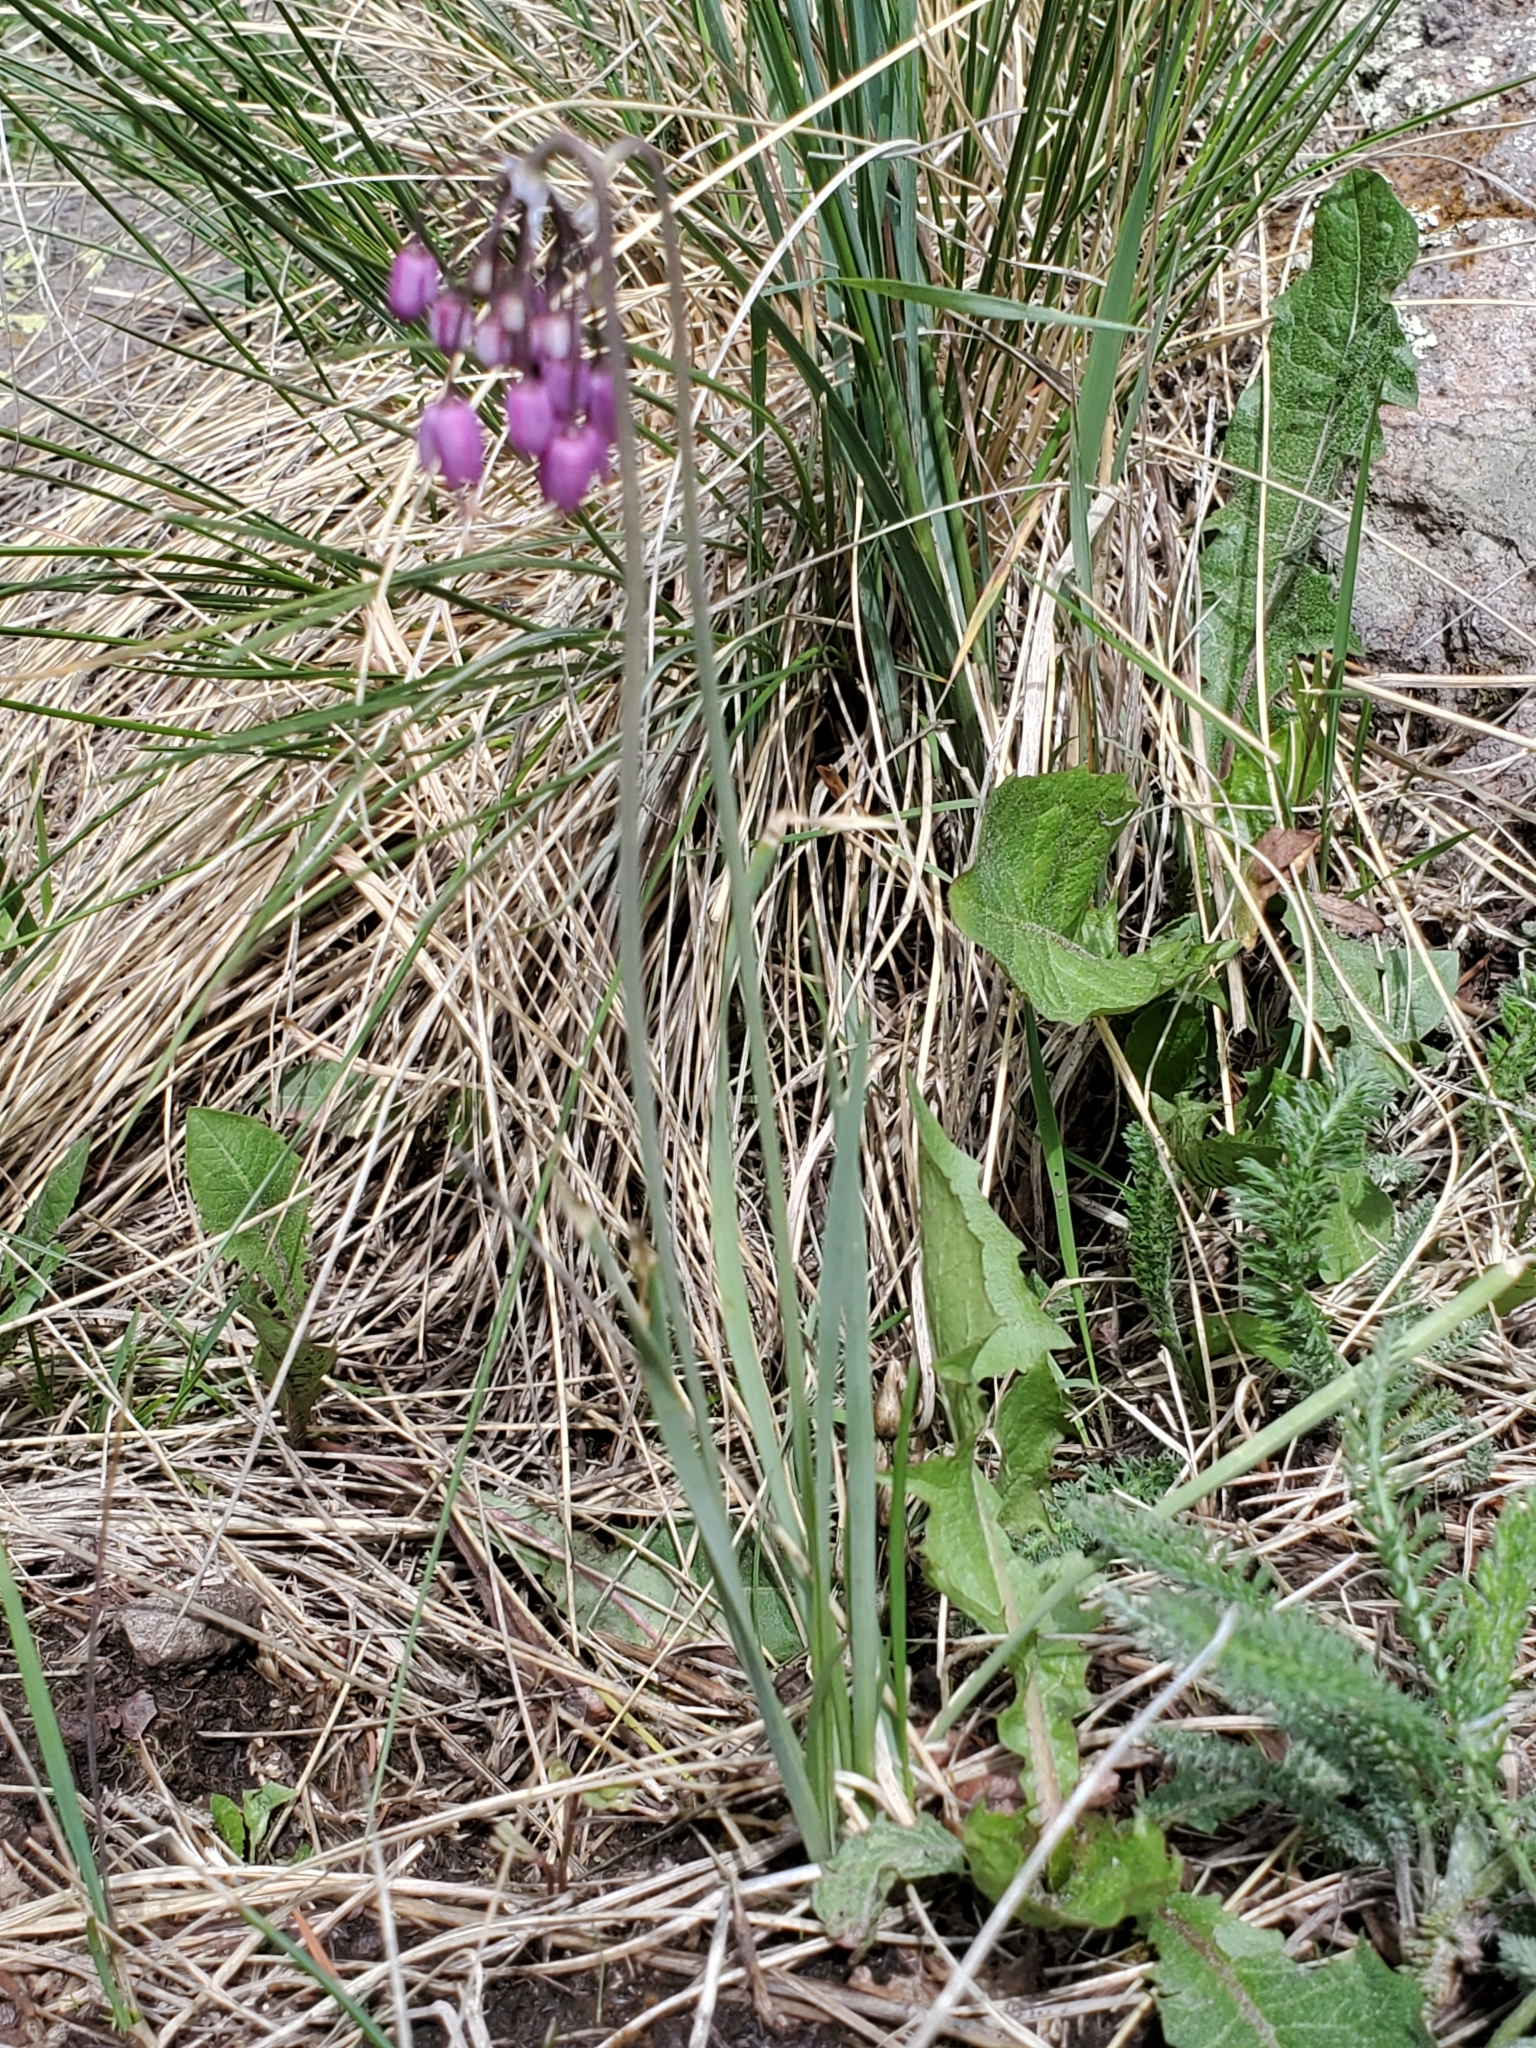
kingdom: Plantae
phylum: Tracheophyta
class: Liliopsida
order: Asparagales
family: Amaryllidaceae
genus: Allium
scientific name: Allium cernuum
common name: Nodding onion
